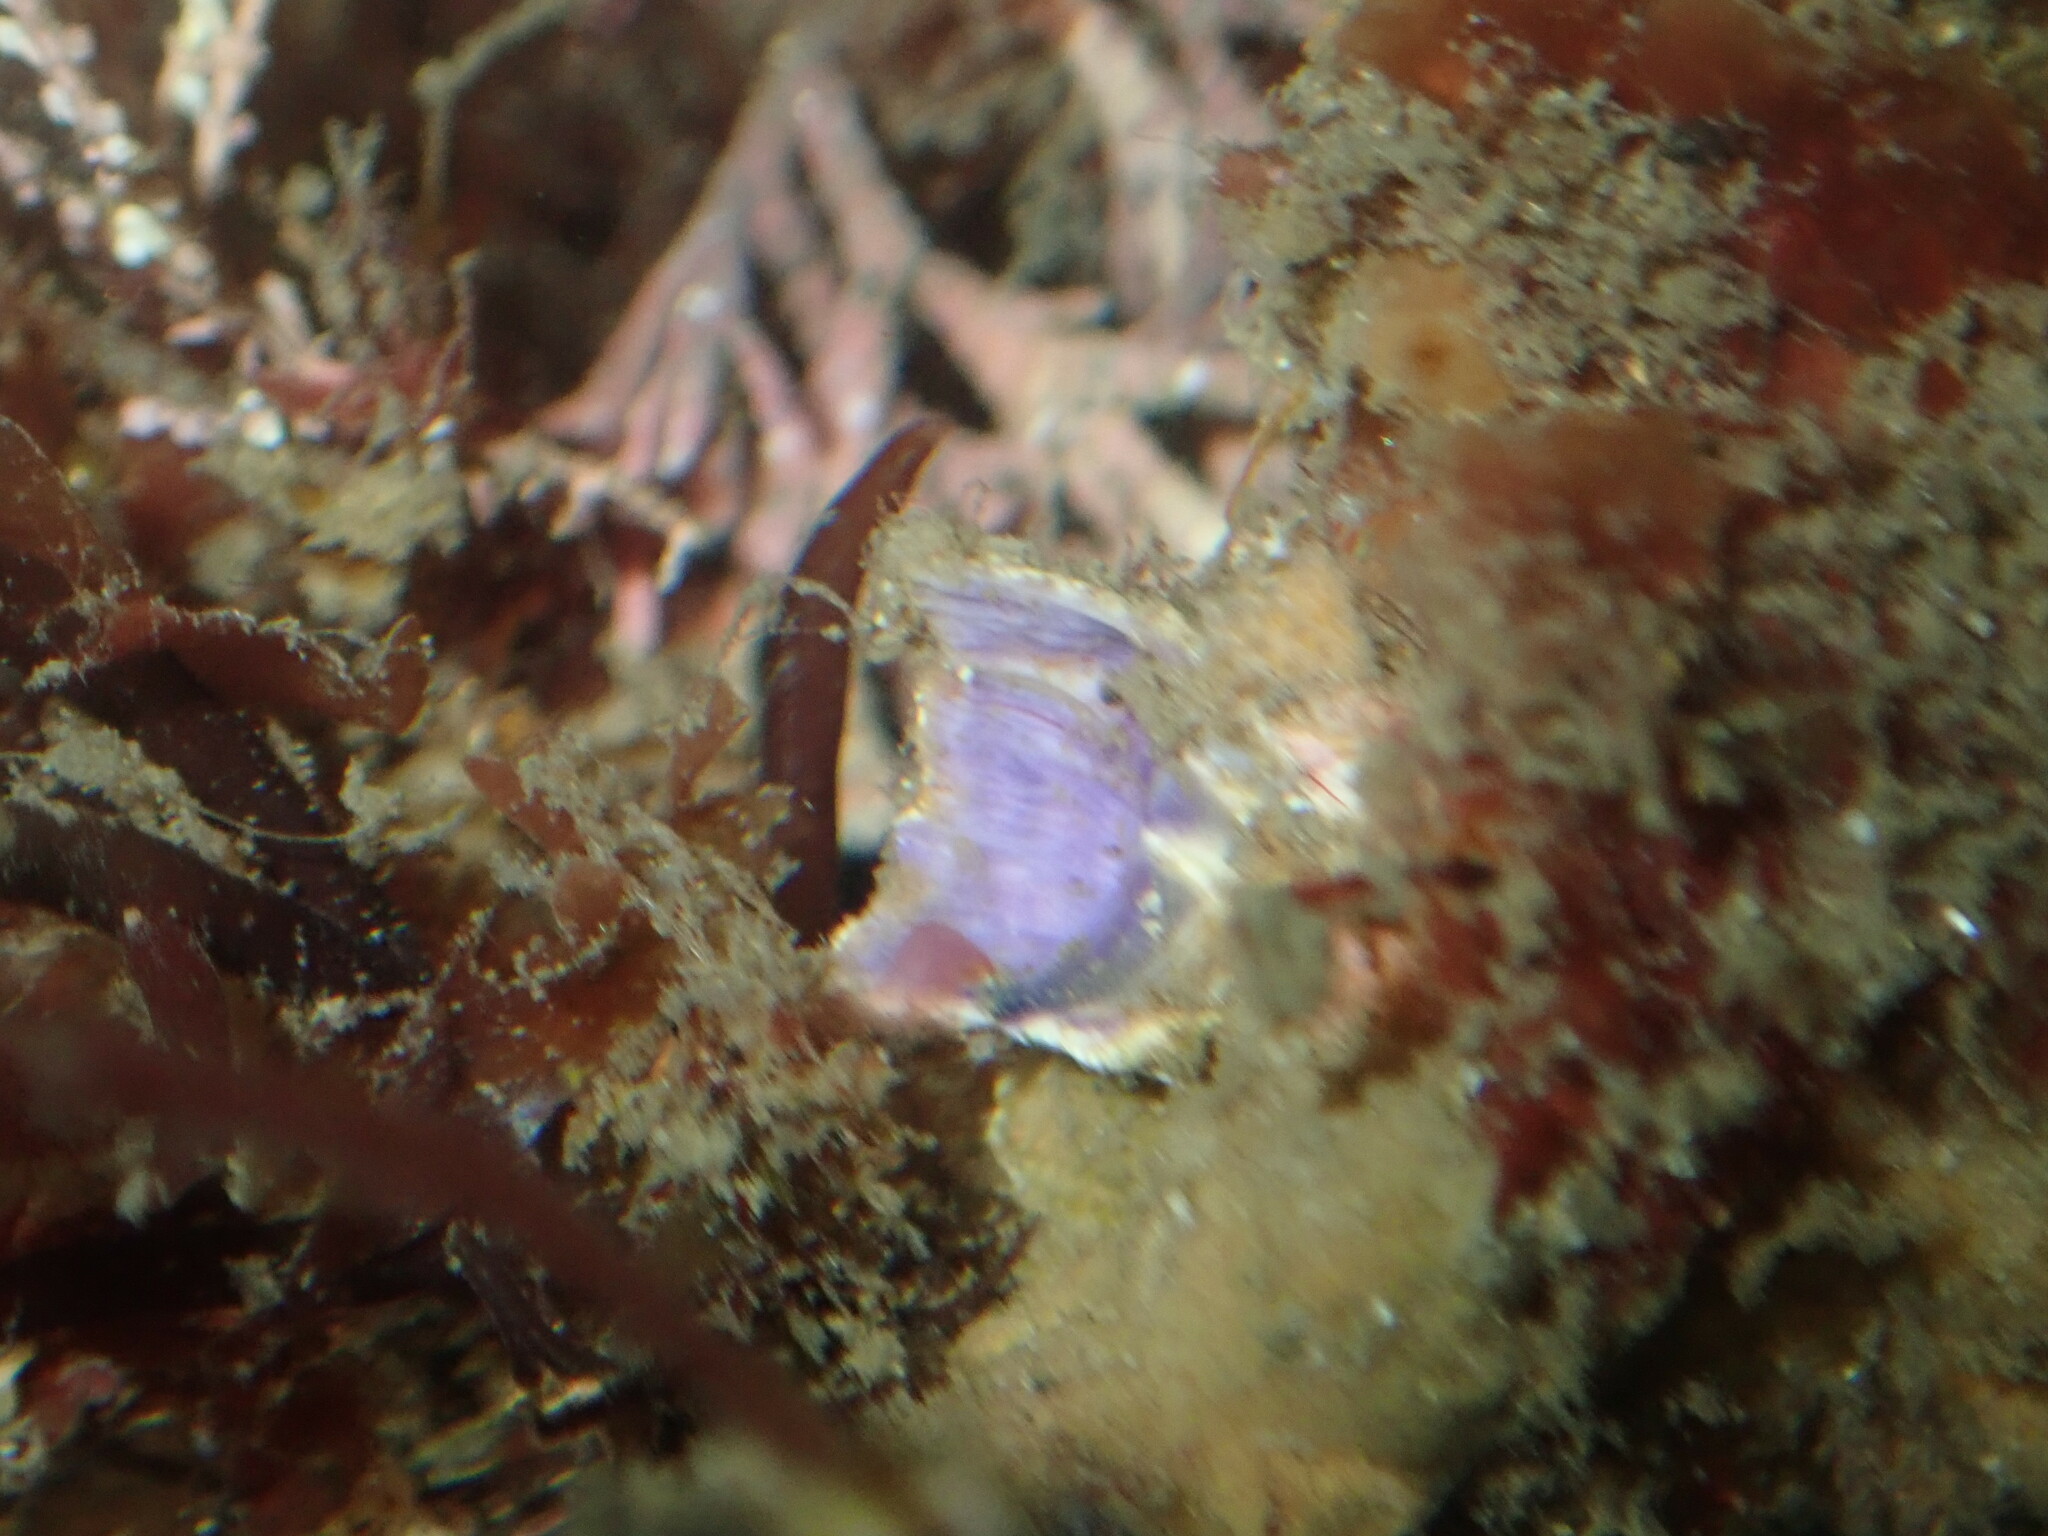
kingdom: Animalia
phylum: Arthropoda
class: Maxillopoda
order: Sessilia
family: Austrobalanidae
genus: Austrobalanus
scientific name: Austrobalanus imperator
